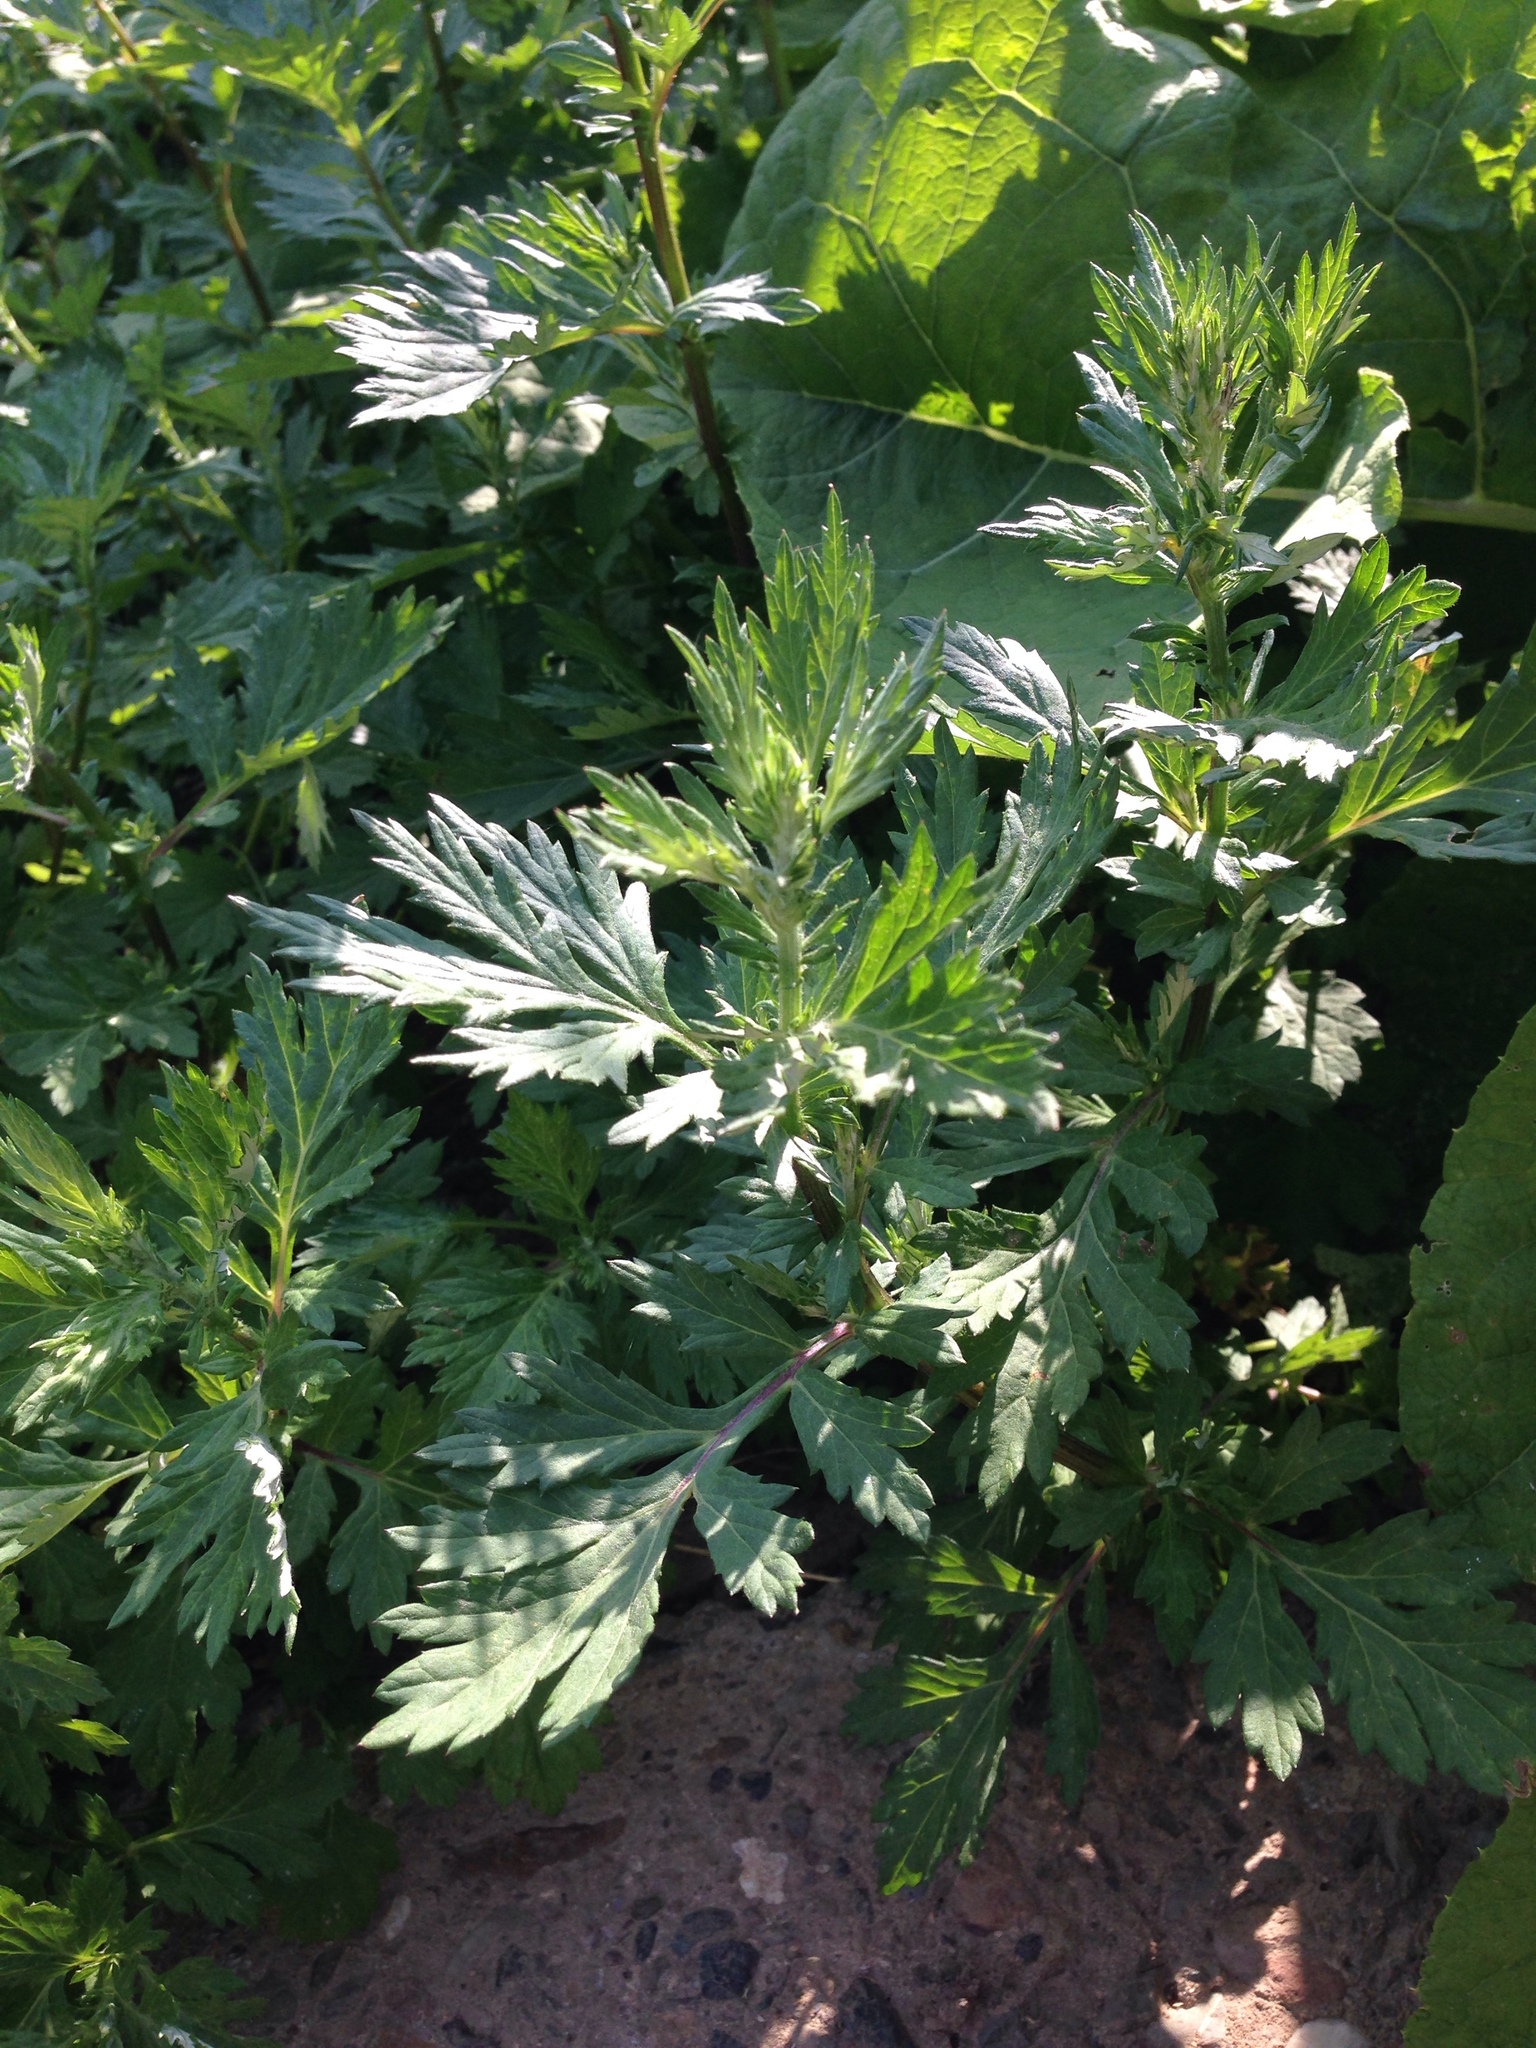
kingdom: Plantae
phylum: Tracheophyta
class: Magnoliopsida
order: Asterales
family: Asteraceae
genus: Artemisia
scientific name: Artemisia vulgaris
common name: Mugwort
